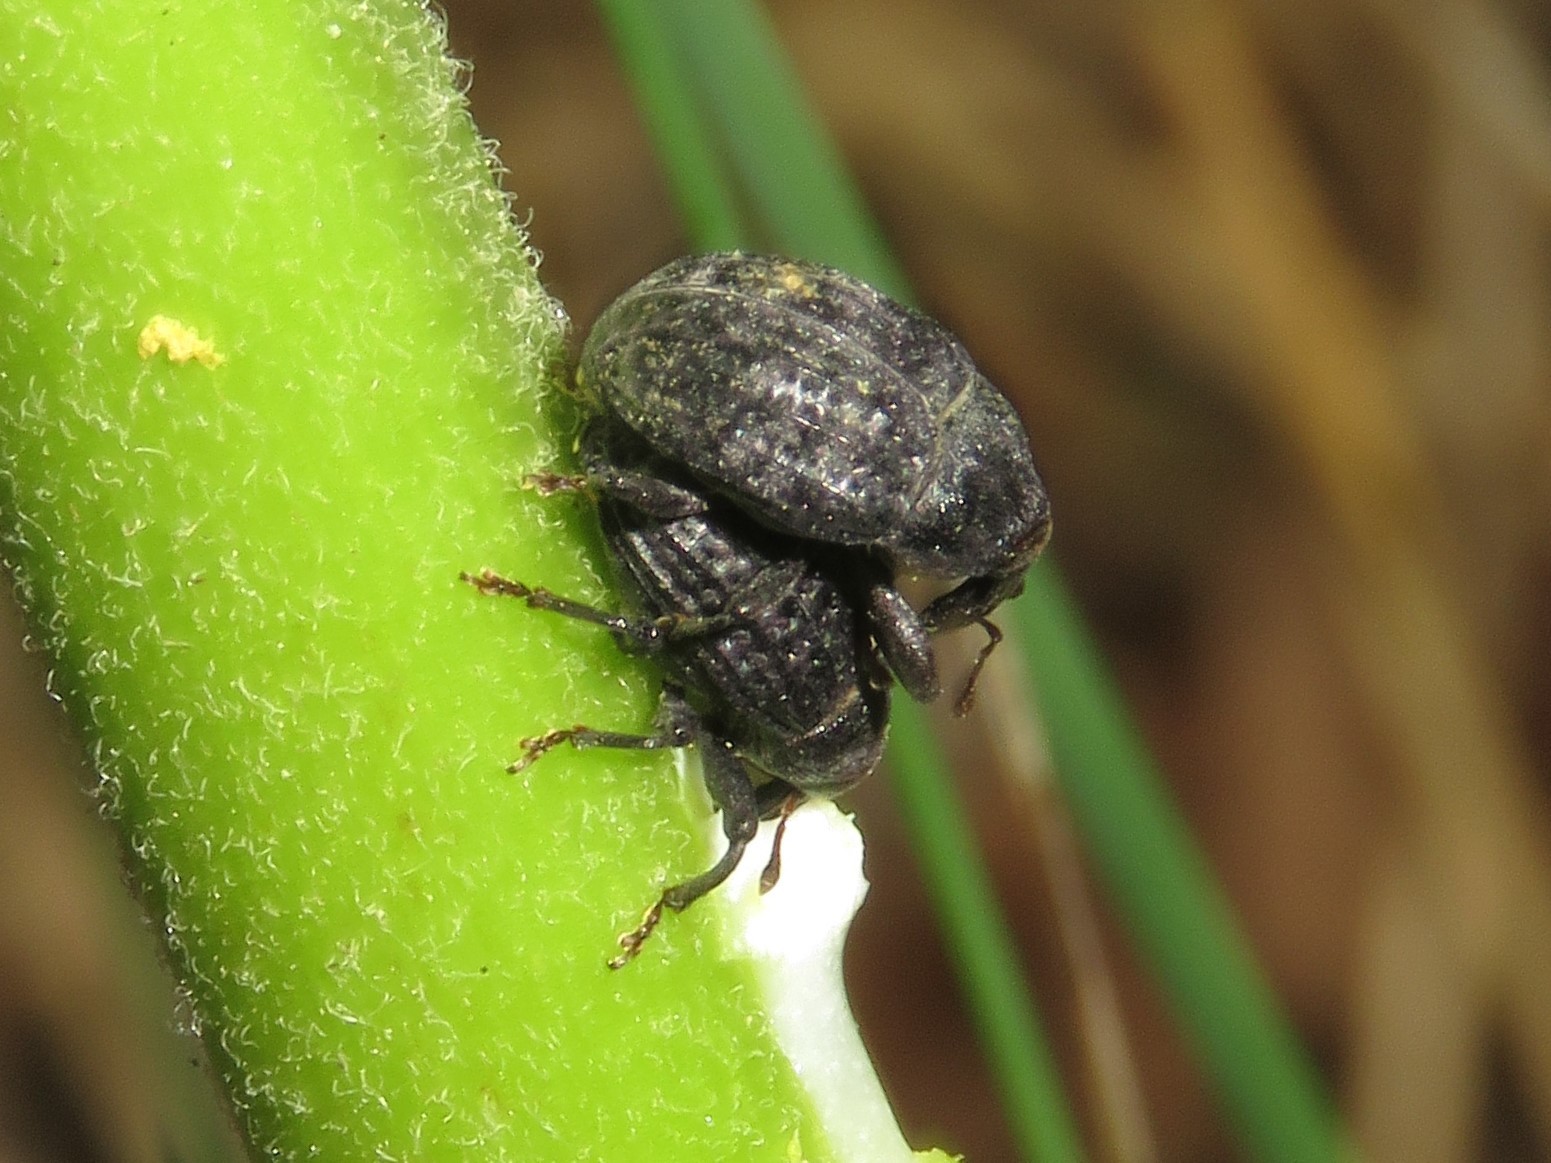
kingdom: Animalia
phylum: Arthropoda
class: Insecta
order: Coleoptera
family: Curculionidae
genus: Rhyssomatus
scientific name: Rhyssomatus lineaticollis
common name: Milkweed stem weevil
